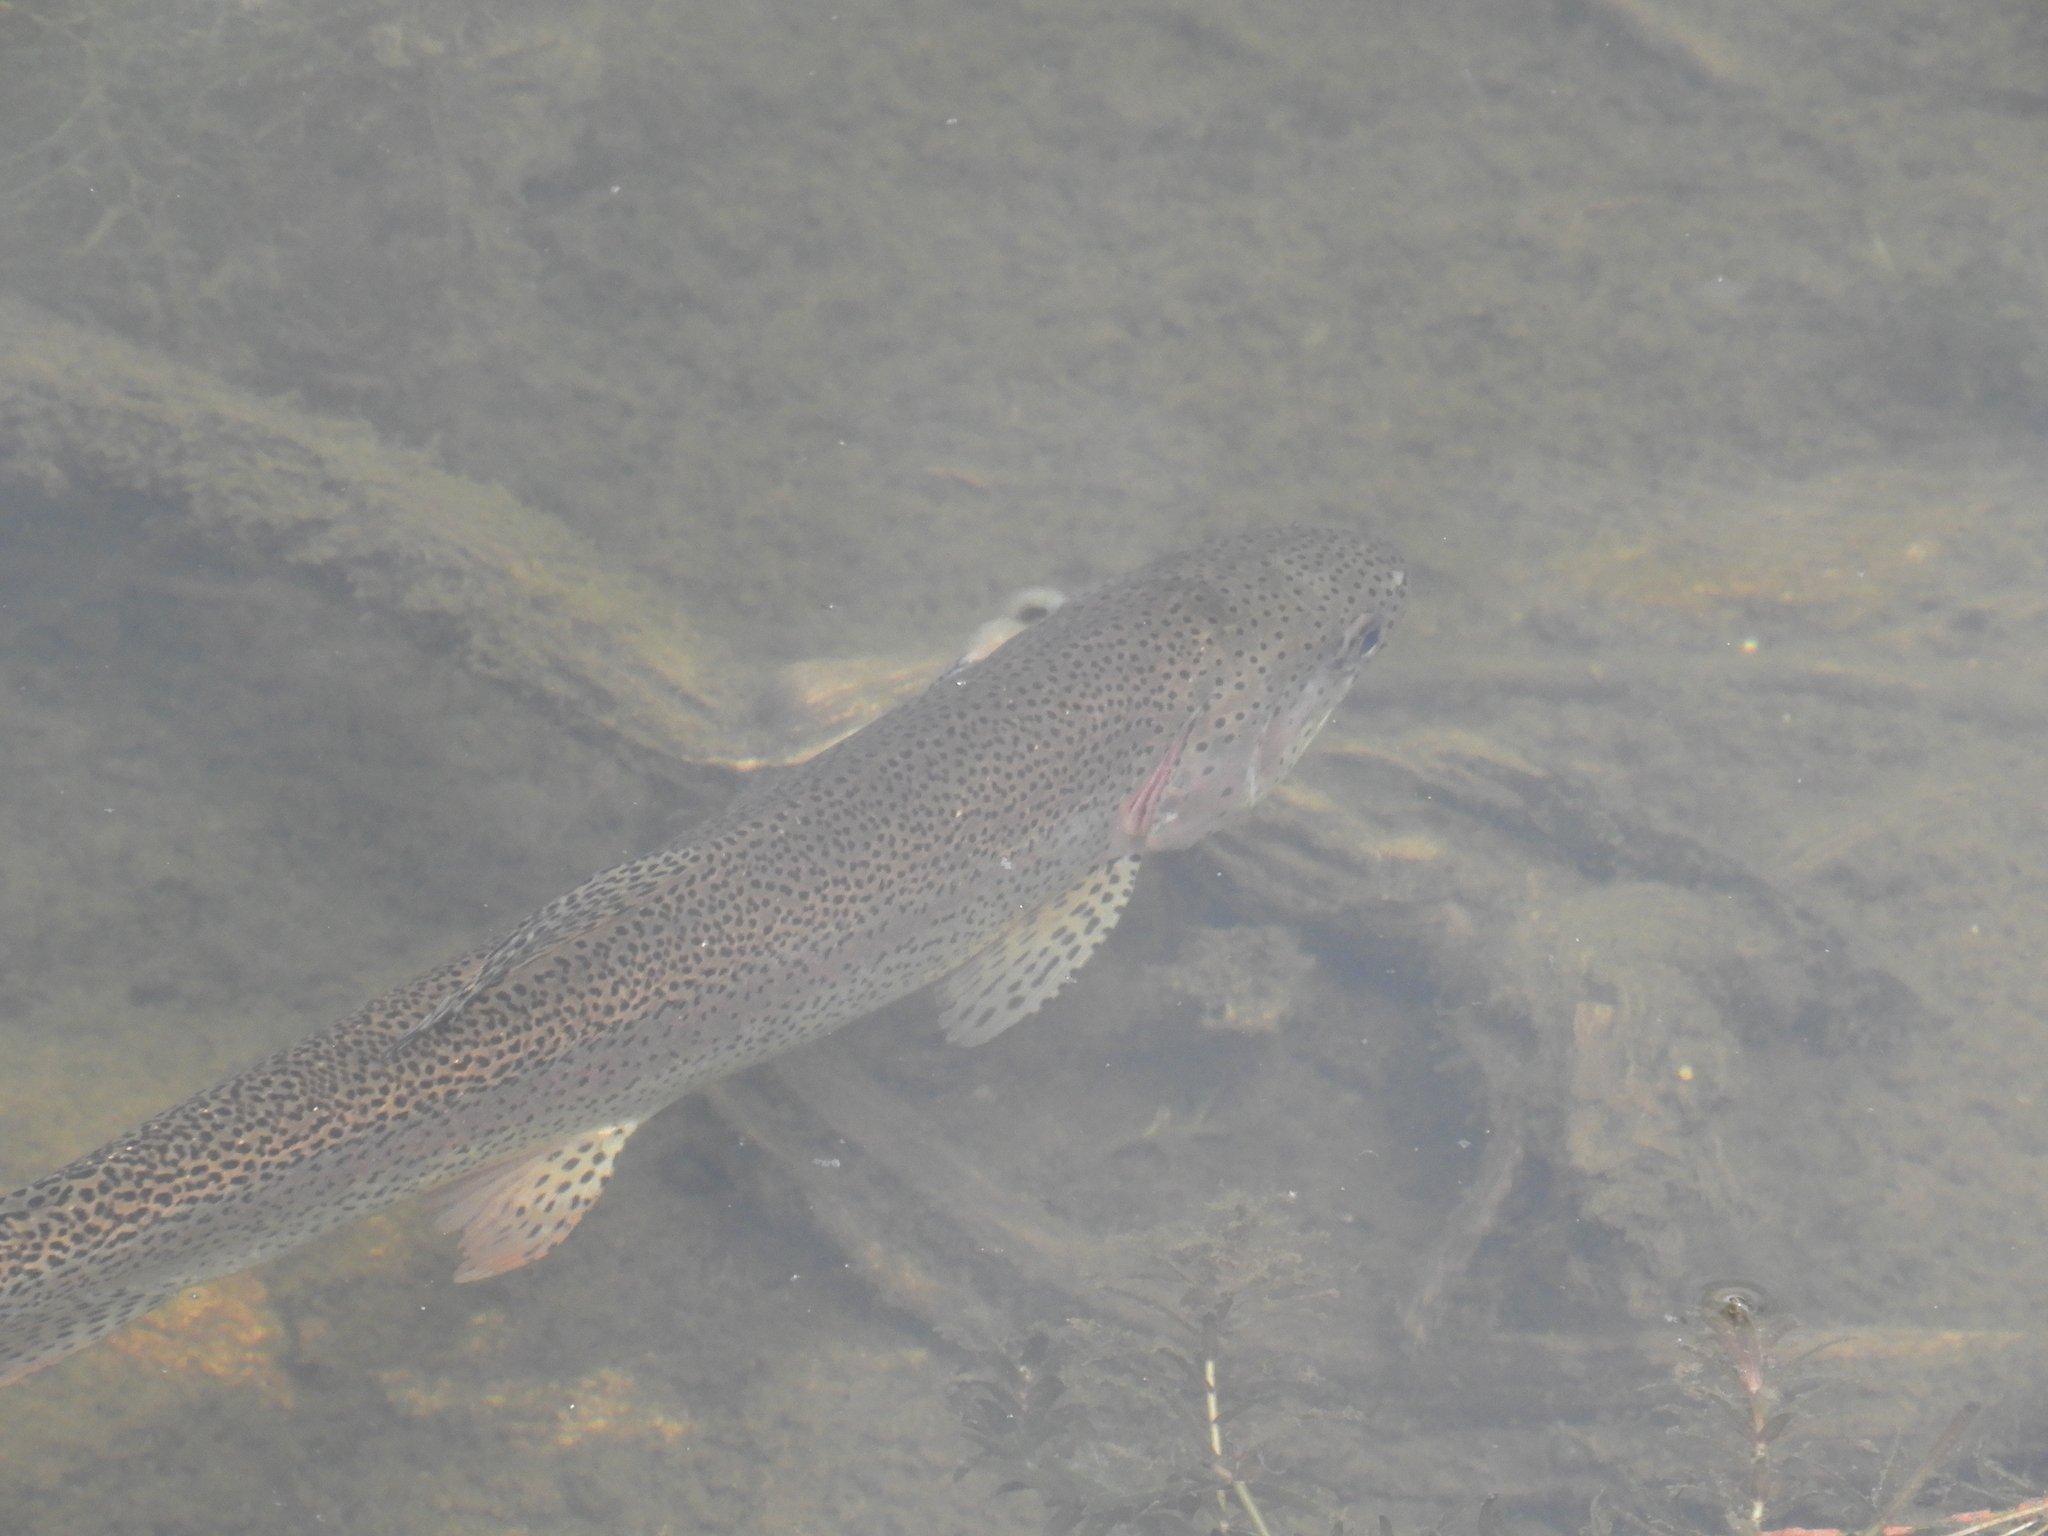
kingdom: Animalia
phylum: Chordata
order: Salmoniformes
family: Salmonidae
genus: Oncorhynchus
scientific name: Oncorhynchus mykiss
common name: Rainbow trout
